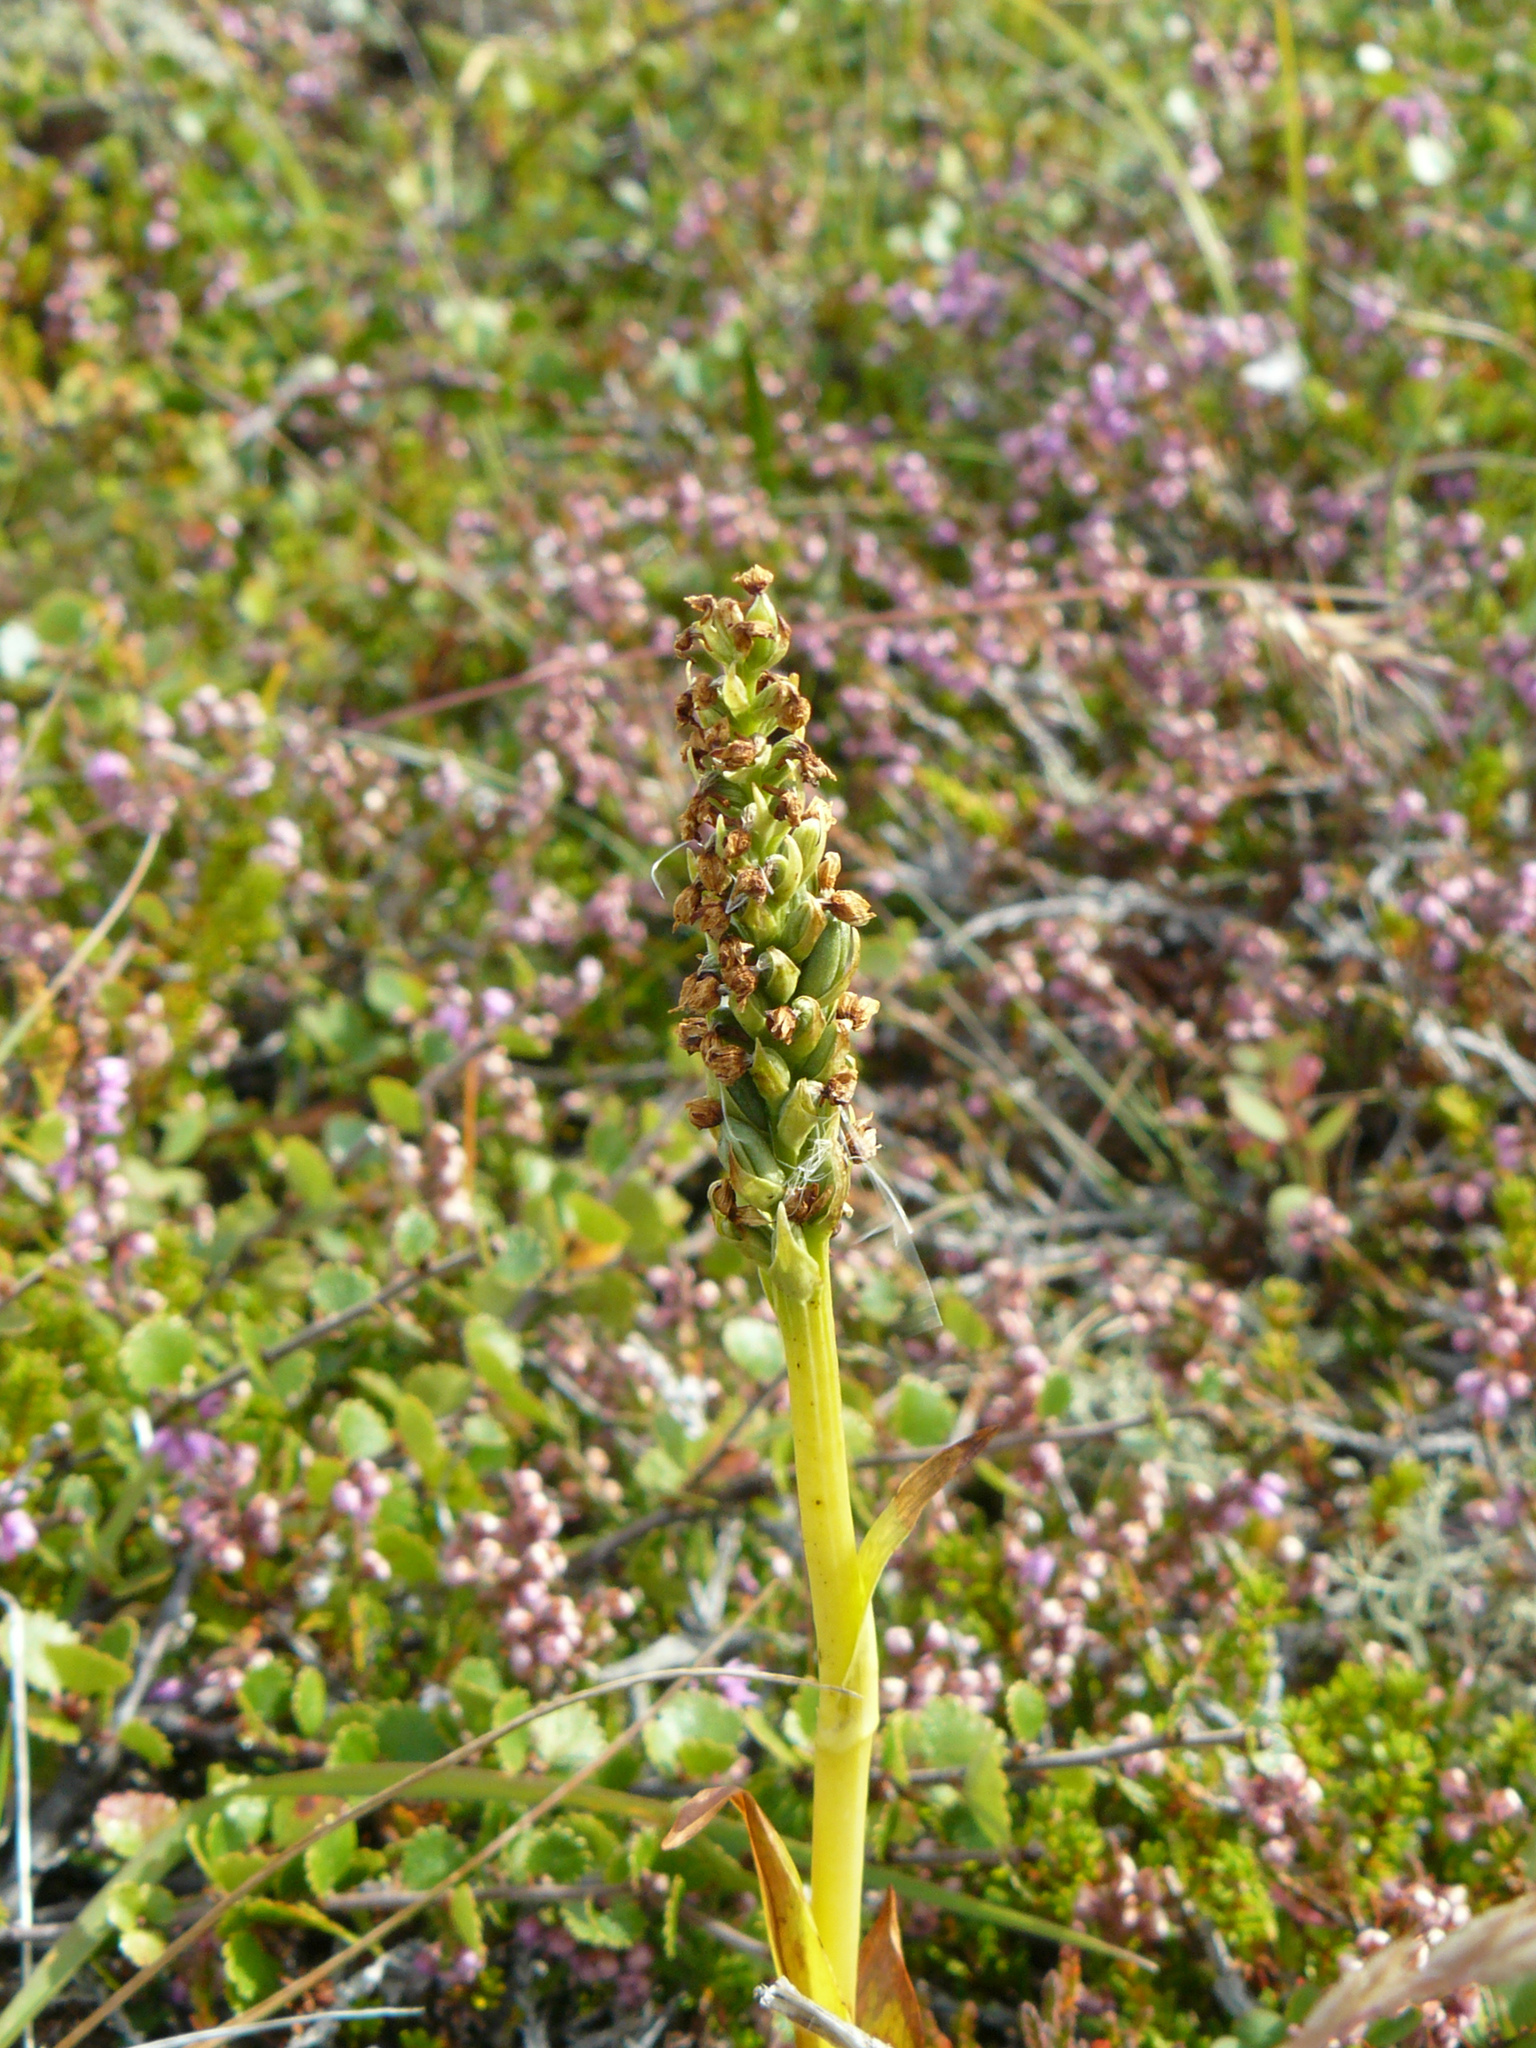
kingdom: Plantae
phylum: Tracheophyta
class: Liliopsida
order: Asparagales
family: Orchidaceae
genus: Platanthera
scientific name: Platanthera hyperborea
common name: Northern green orchid
